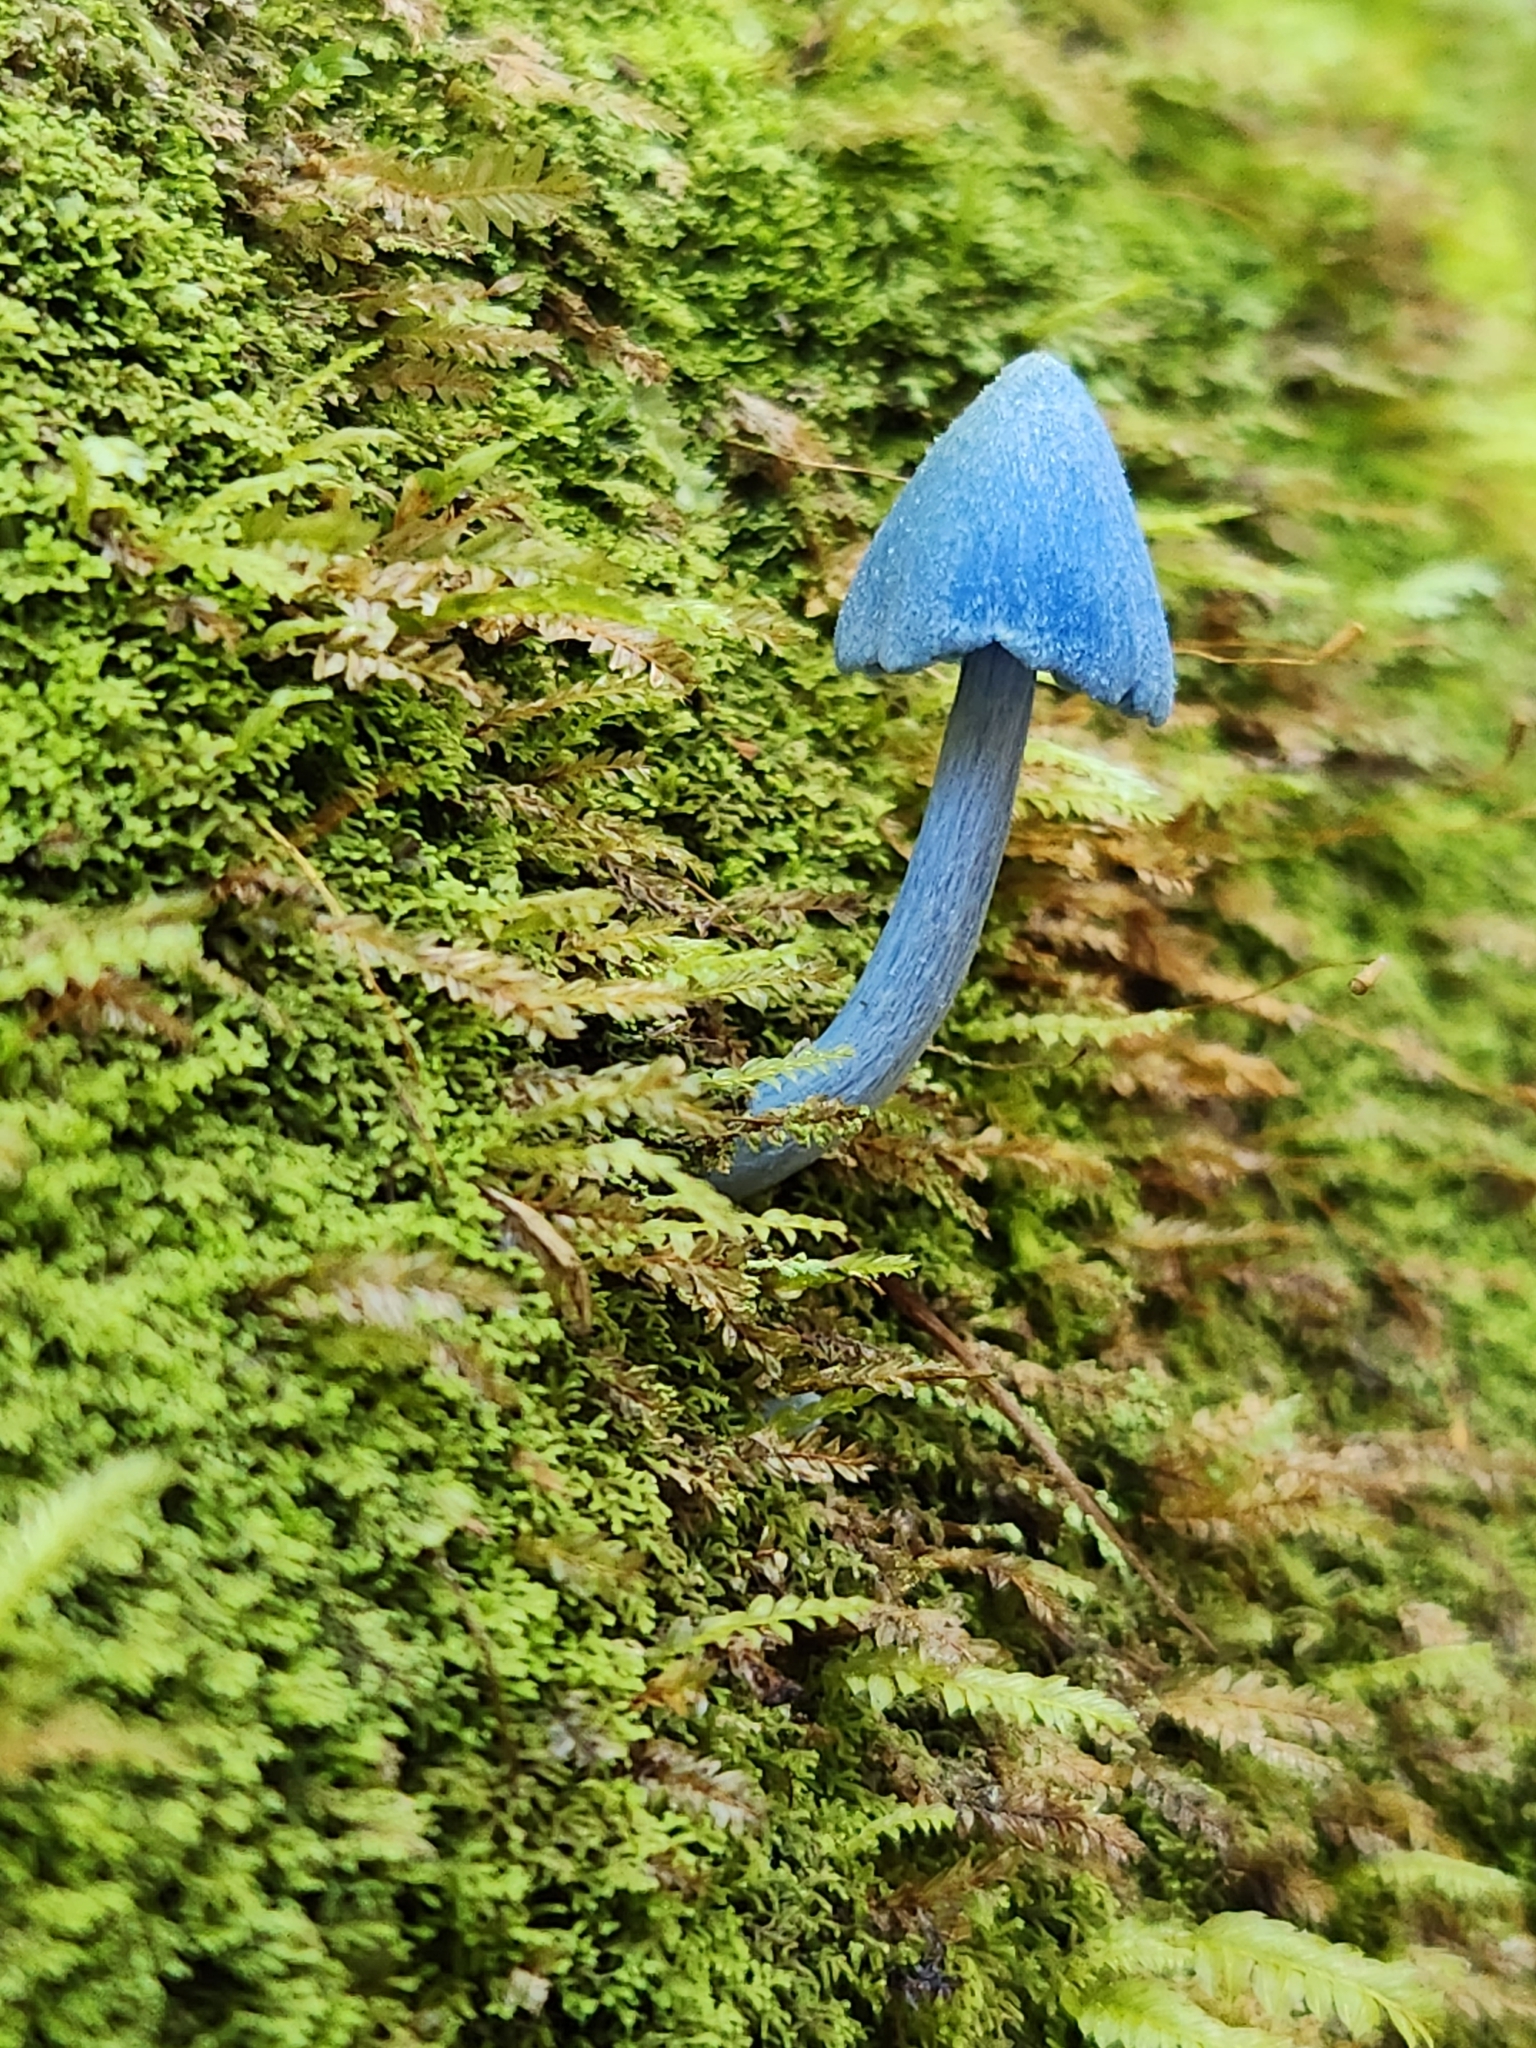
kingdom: Fungi
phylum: Basidiomycota
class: Agaricomycetes
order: Agaricales
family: Entolomataceae
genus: Entoloma
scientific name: Entoloma hochstetteri
